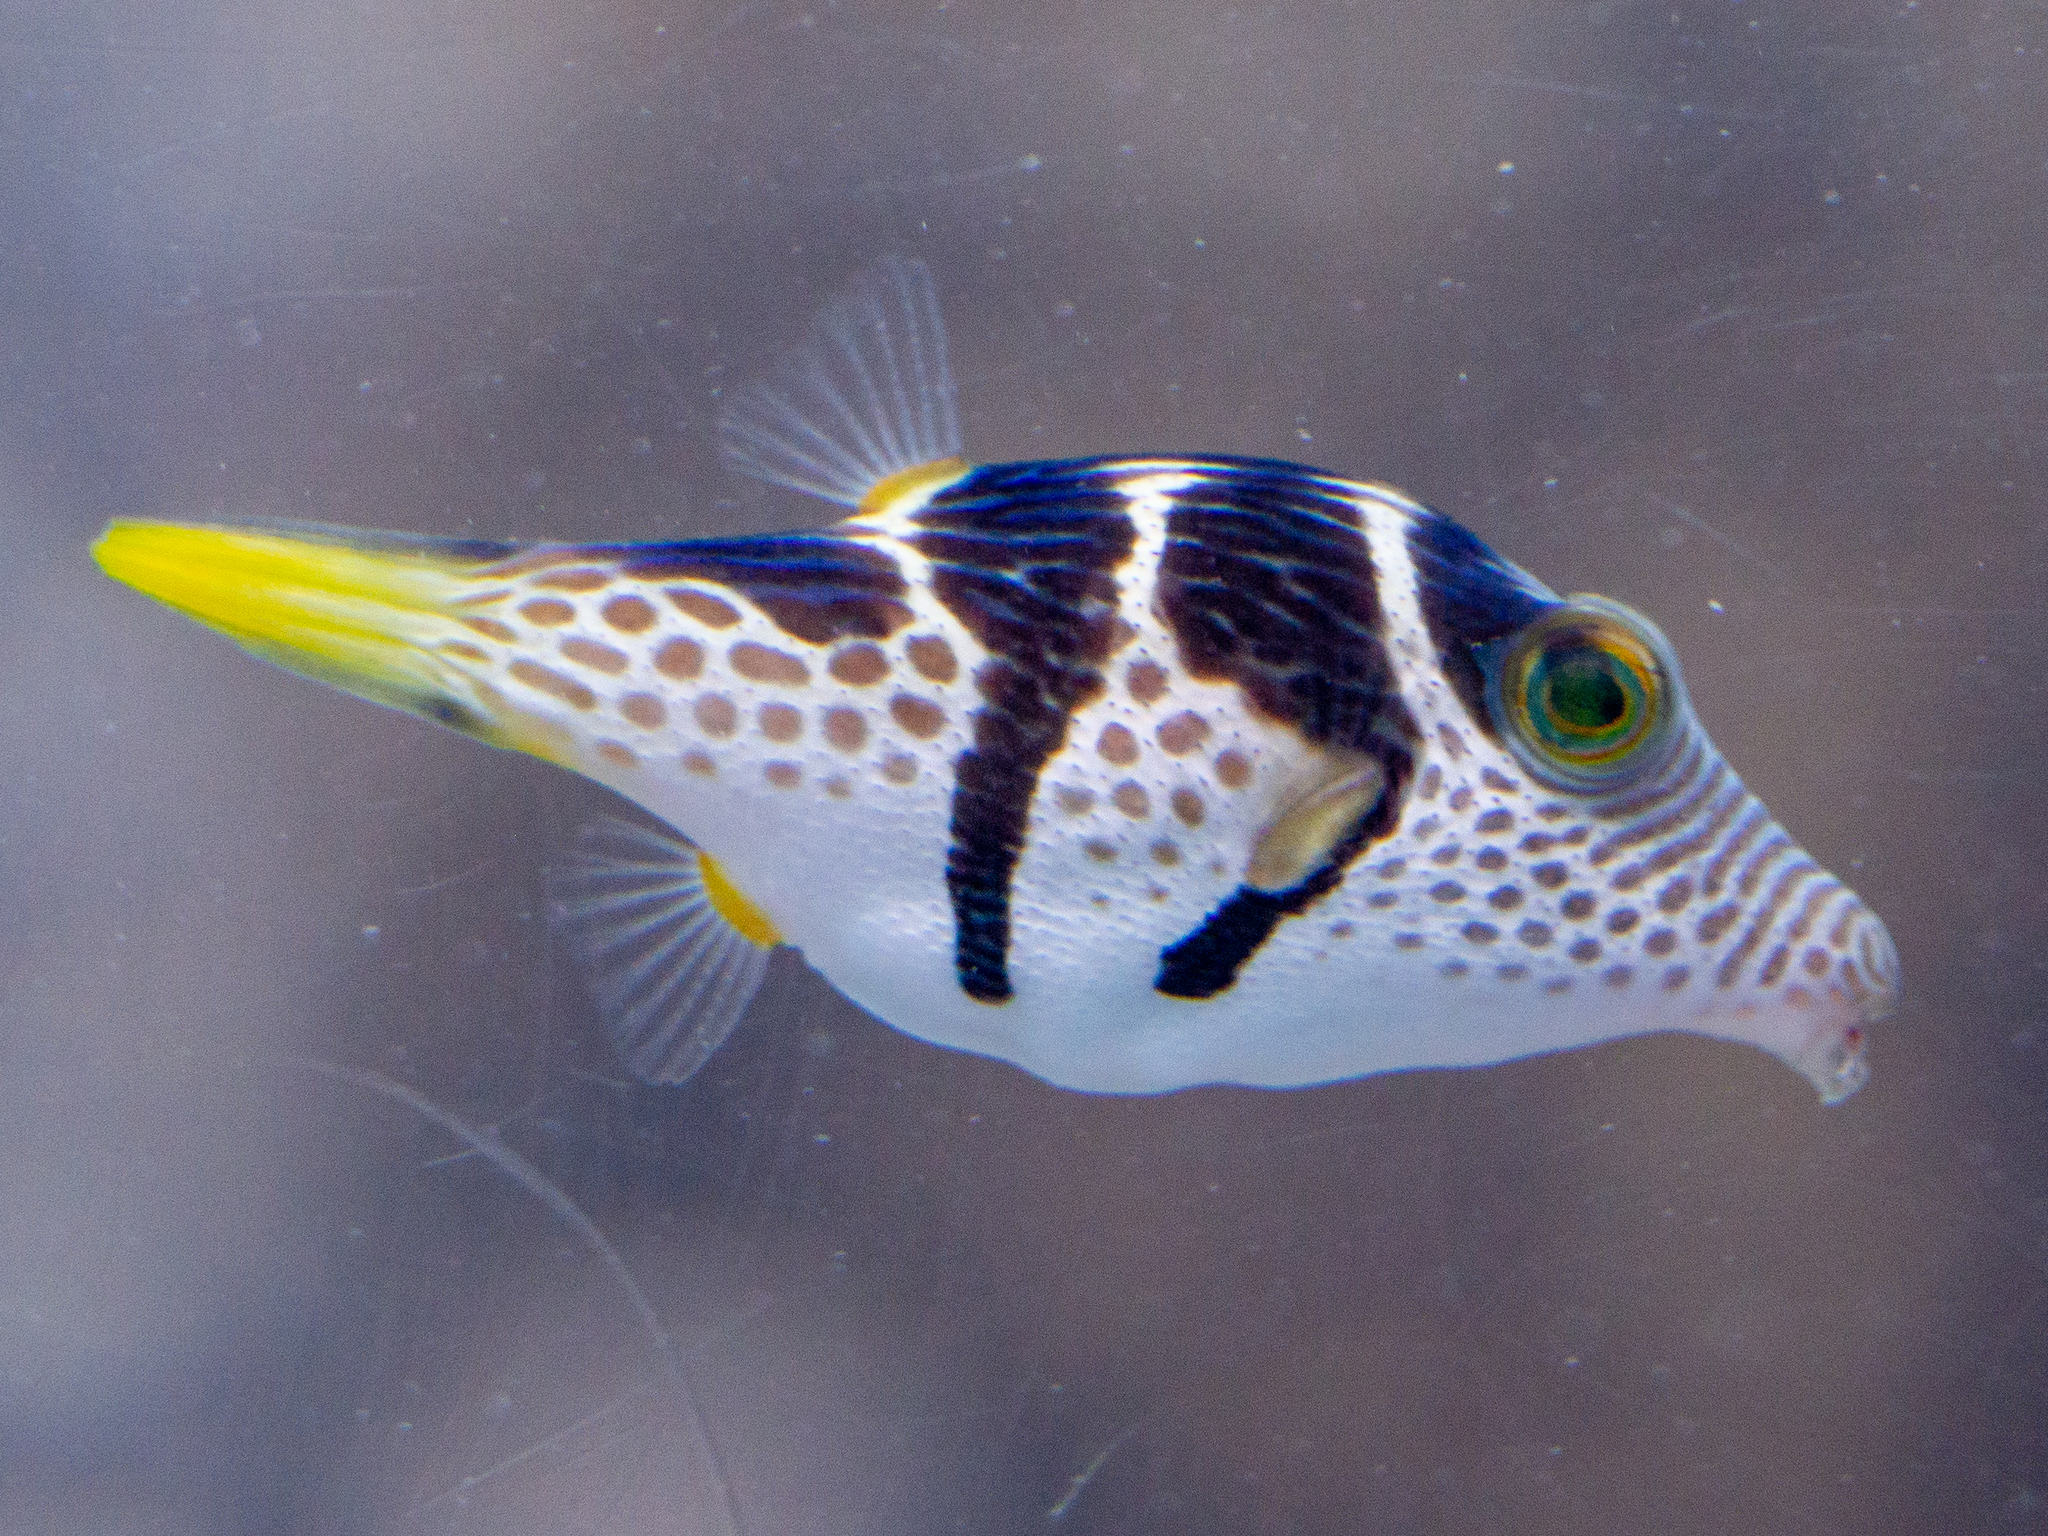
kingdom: Animalia
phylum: Chordata
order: Tetraodontiformes
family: Tetraodontidae
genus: Canthigaster
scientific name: Canthigaster valentini
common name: Banded toby
